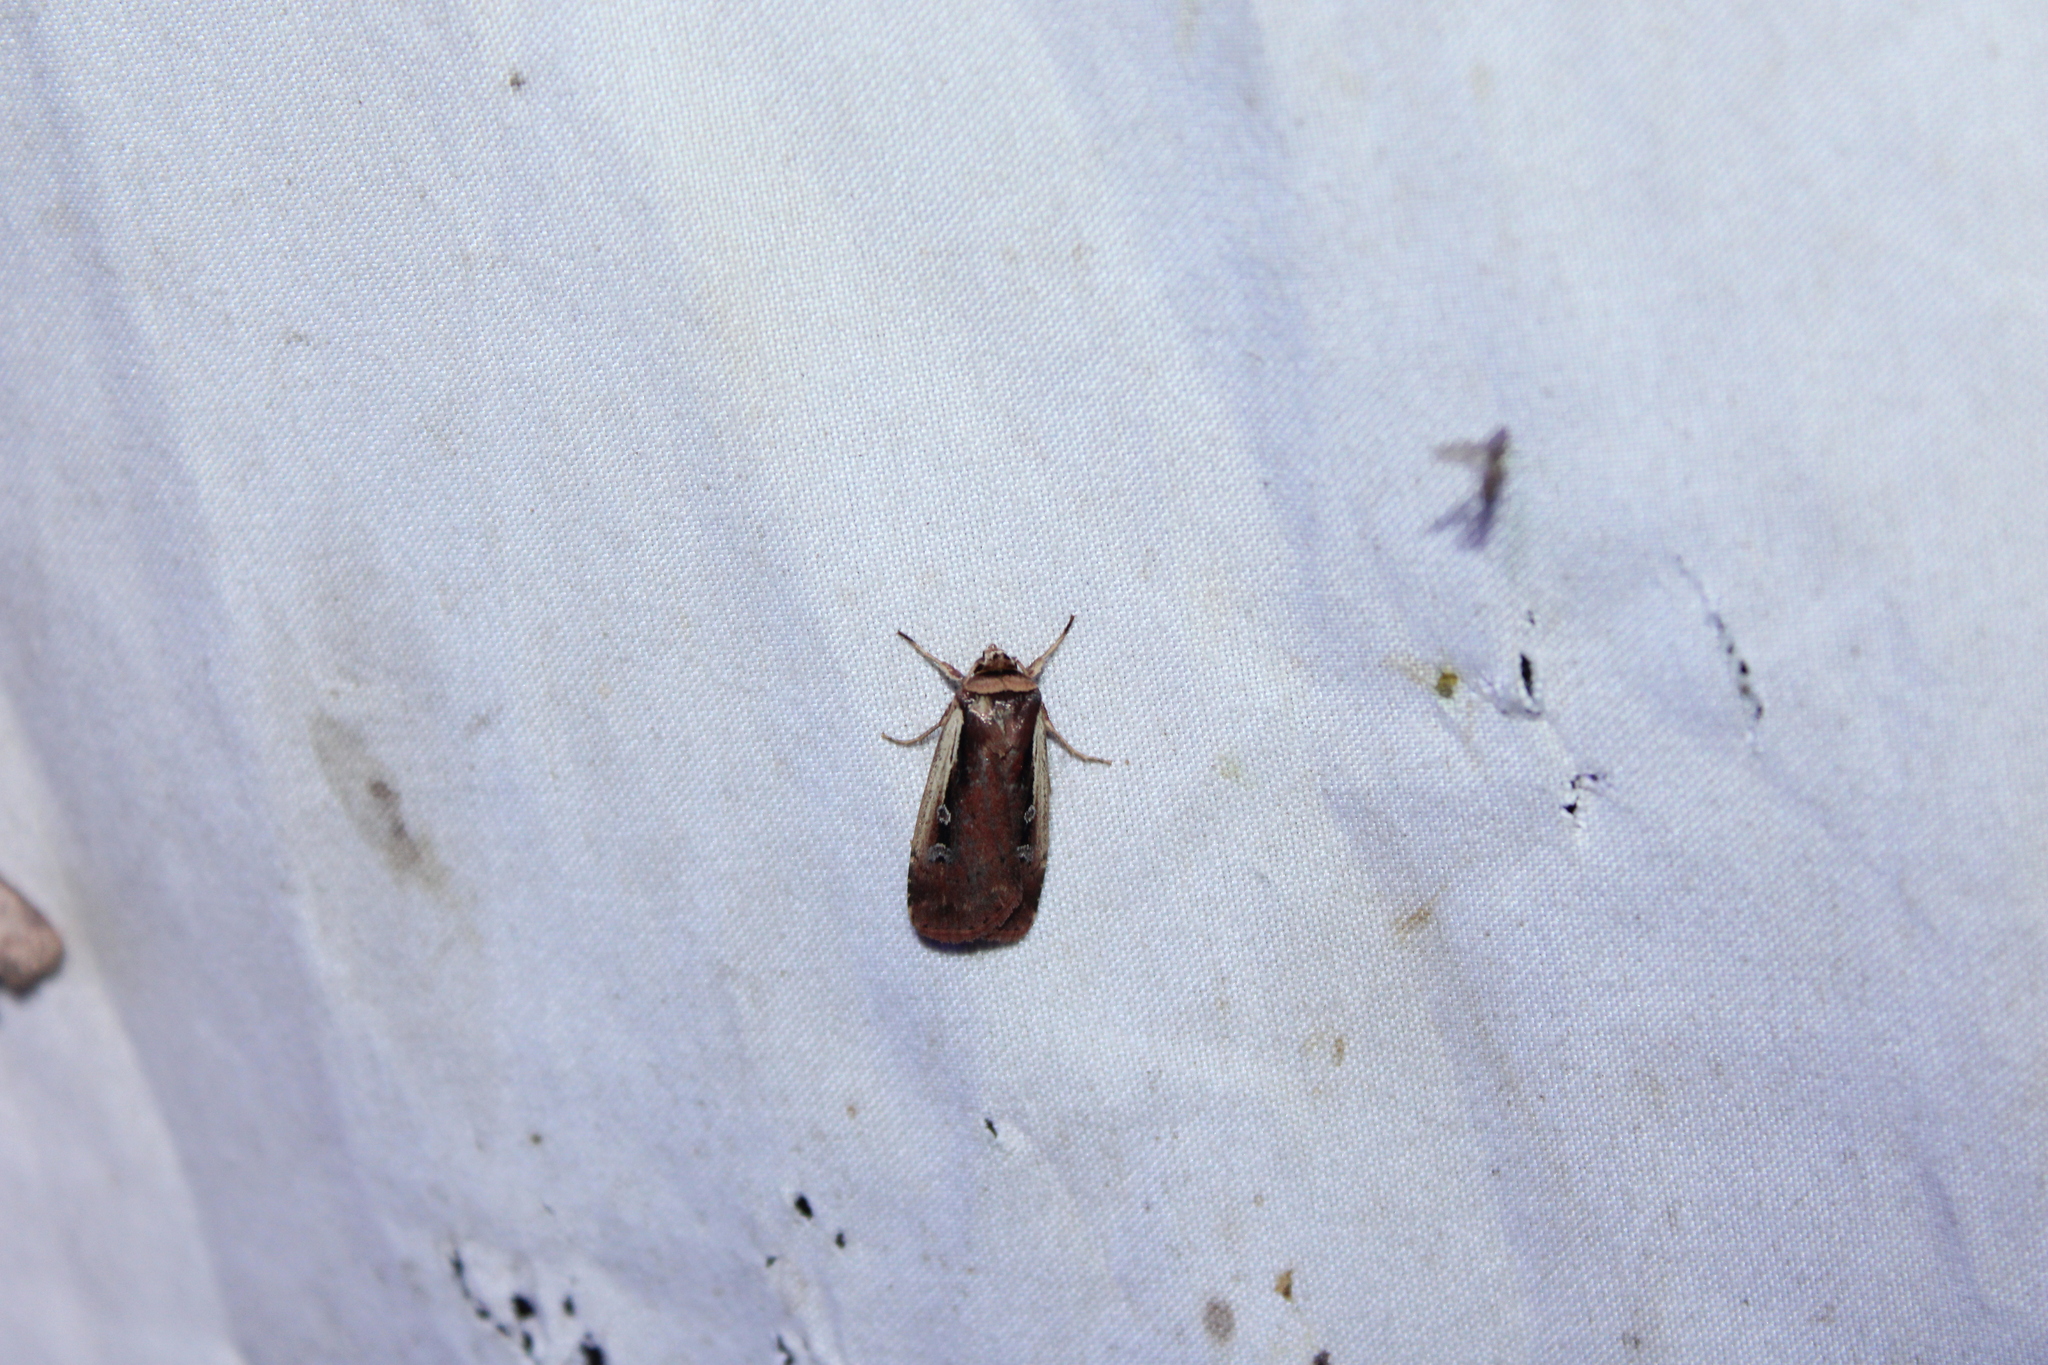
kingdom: Animalia
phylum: Arthropoda
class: Insecta
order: Lepidoptera
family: Noctuidae
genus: Ochropleura
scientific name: Ochropleura implecta
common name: Flame-shouldered dart
